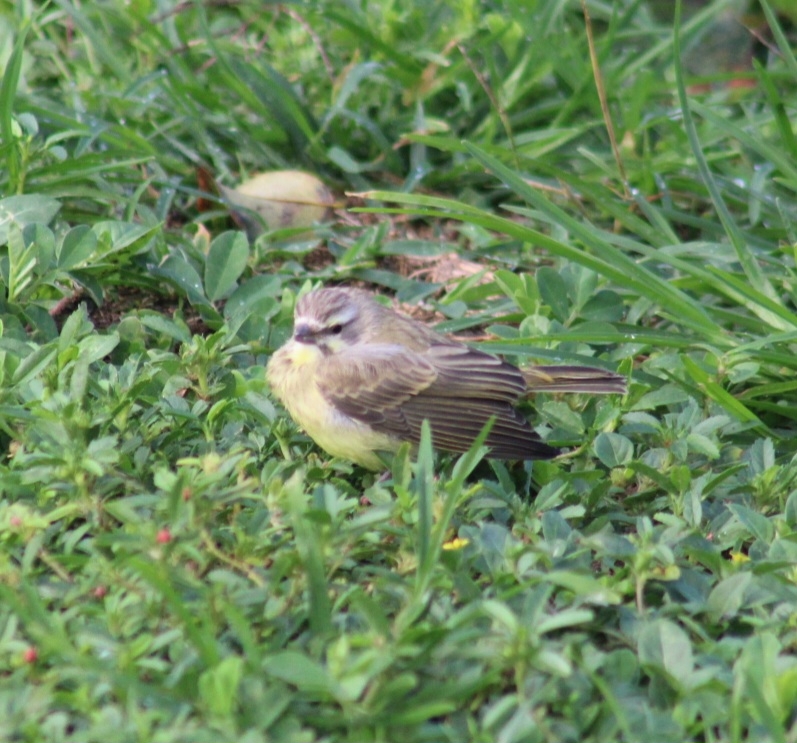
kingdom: Animalia
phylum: Chordata
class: Aves
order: Passeriformes
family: Fringillidae
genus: Crithagra
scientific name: Crithagra mozambica
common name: Yellow-fronted canary
